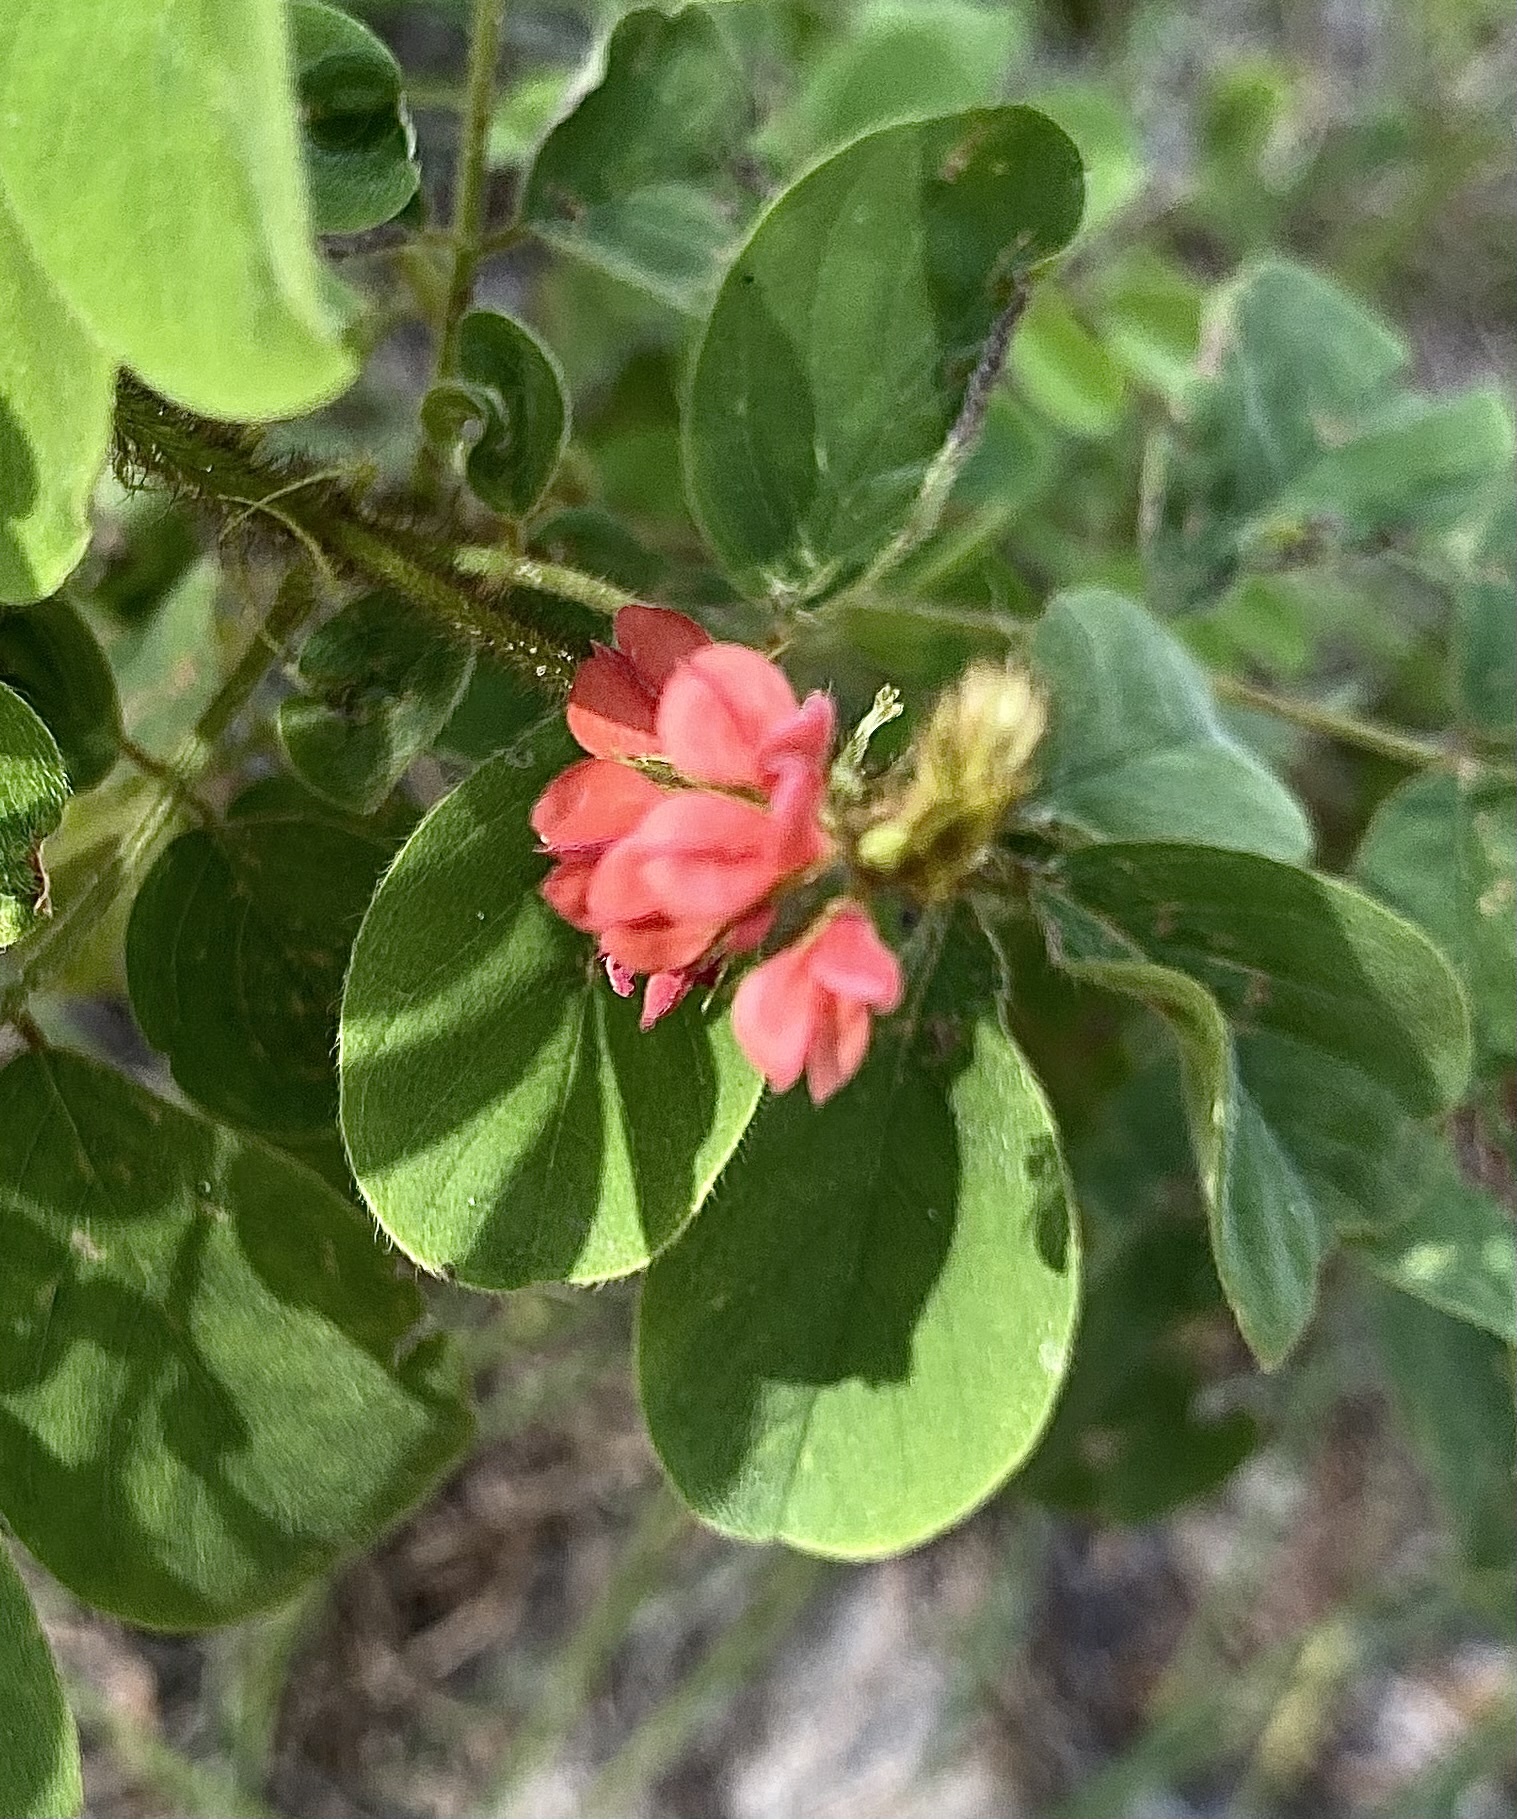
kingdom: Plantae
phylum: Tracheophyta
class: Magnoliopsida
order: Fabales
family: Fabaceae
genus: Indigofera
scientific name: Indigofera hirsuta
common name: Hairy indigo
